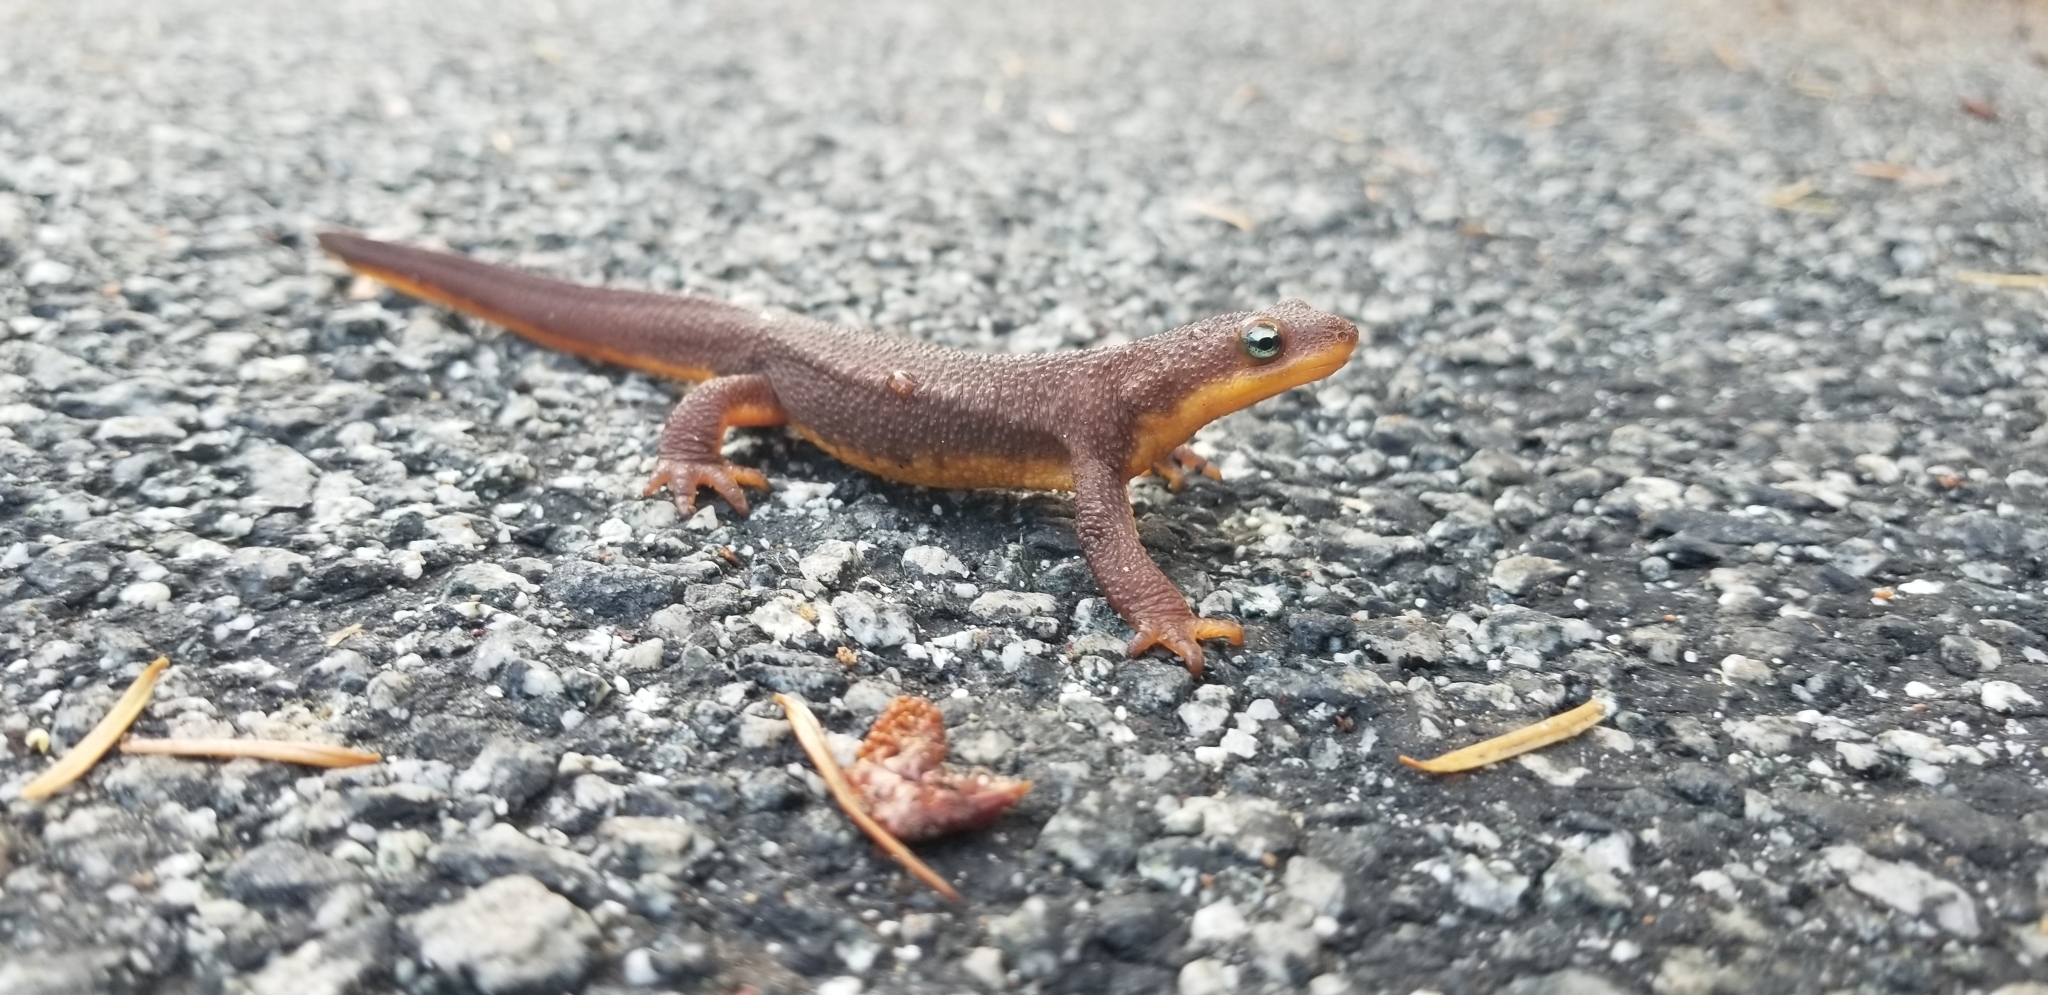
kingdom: Animalia
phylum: Chordata
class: Amphibia
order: Caudata
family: Salamandridae
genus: Taricha
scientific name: Taricha torosa
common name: California newt
